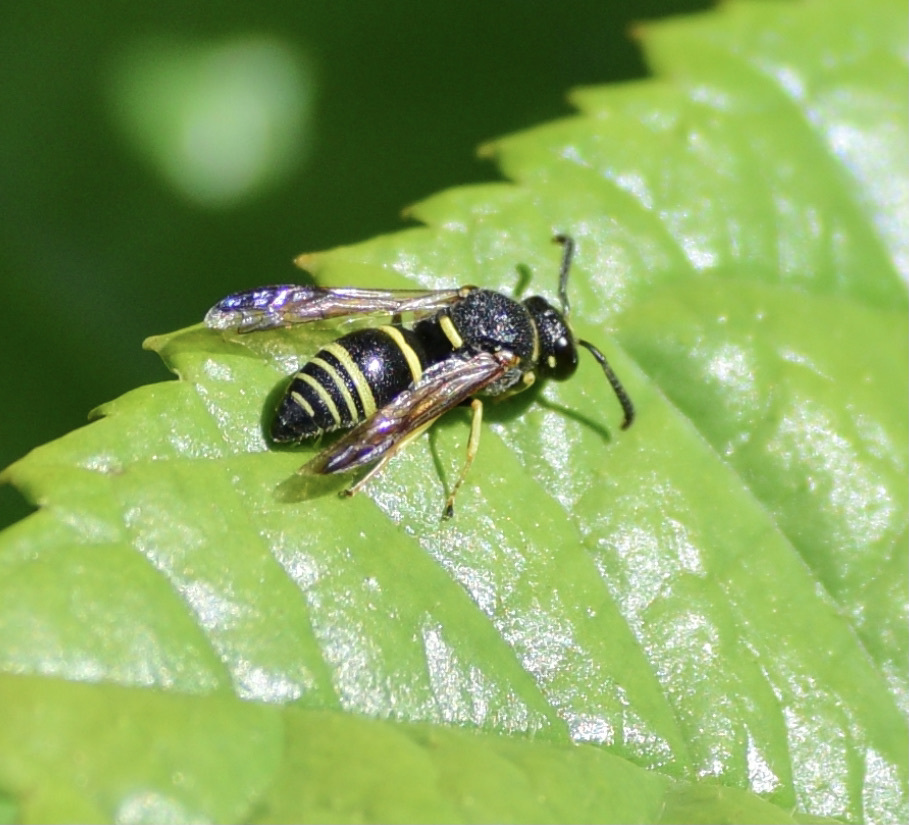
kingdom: Animalia
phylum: Arthropoda
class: Insecta
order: Hymenoptera
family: Eumenidae
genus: Euodynerus
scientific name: Euodynerus foraminatus
